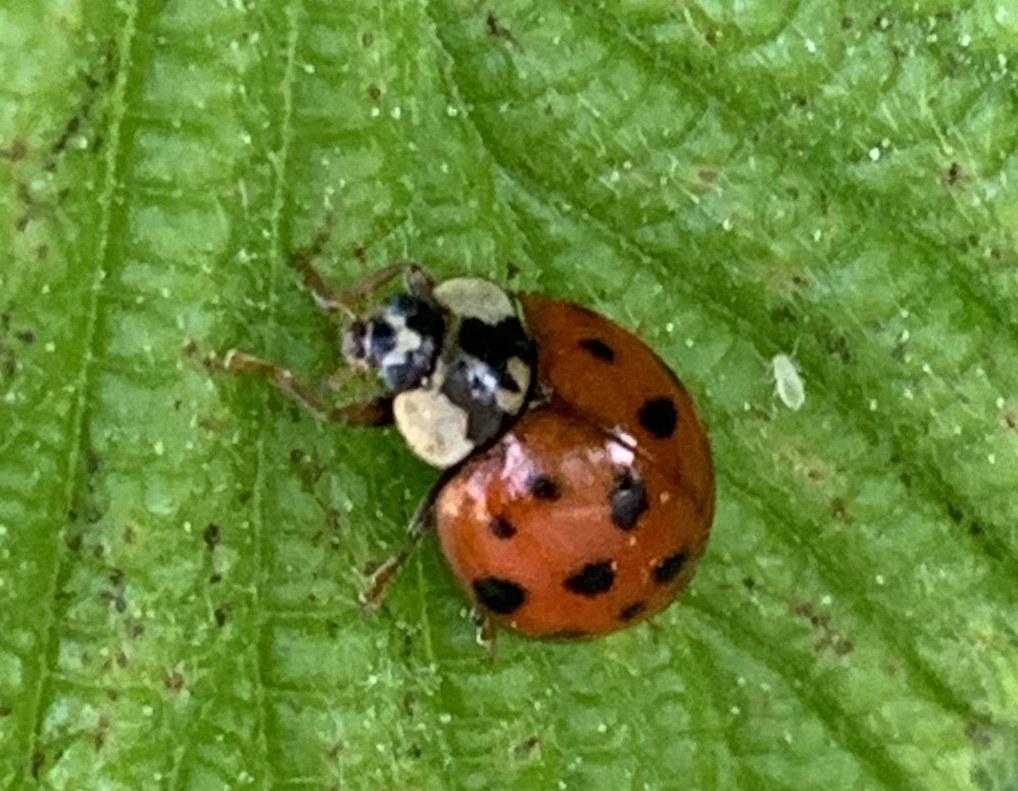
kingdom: Animalia
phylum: Arthropoda
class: Insecta
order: Coleoptera
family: Coccinellidae
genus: Harmonia
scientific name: Harmonia axyridis
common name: Harlequin ladybird
